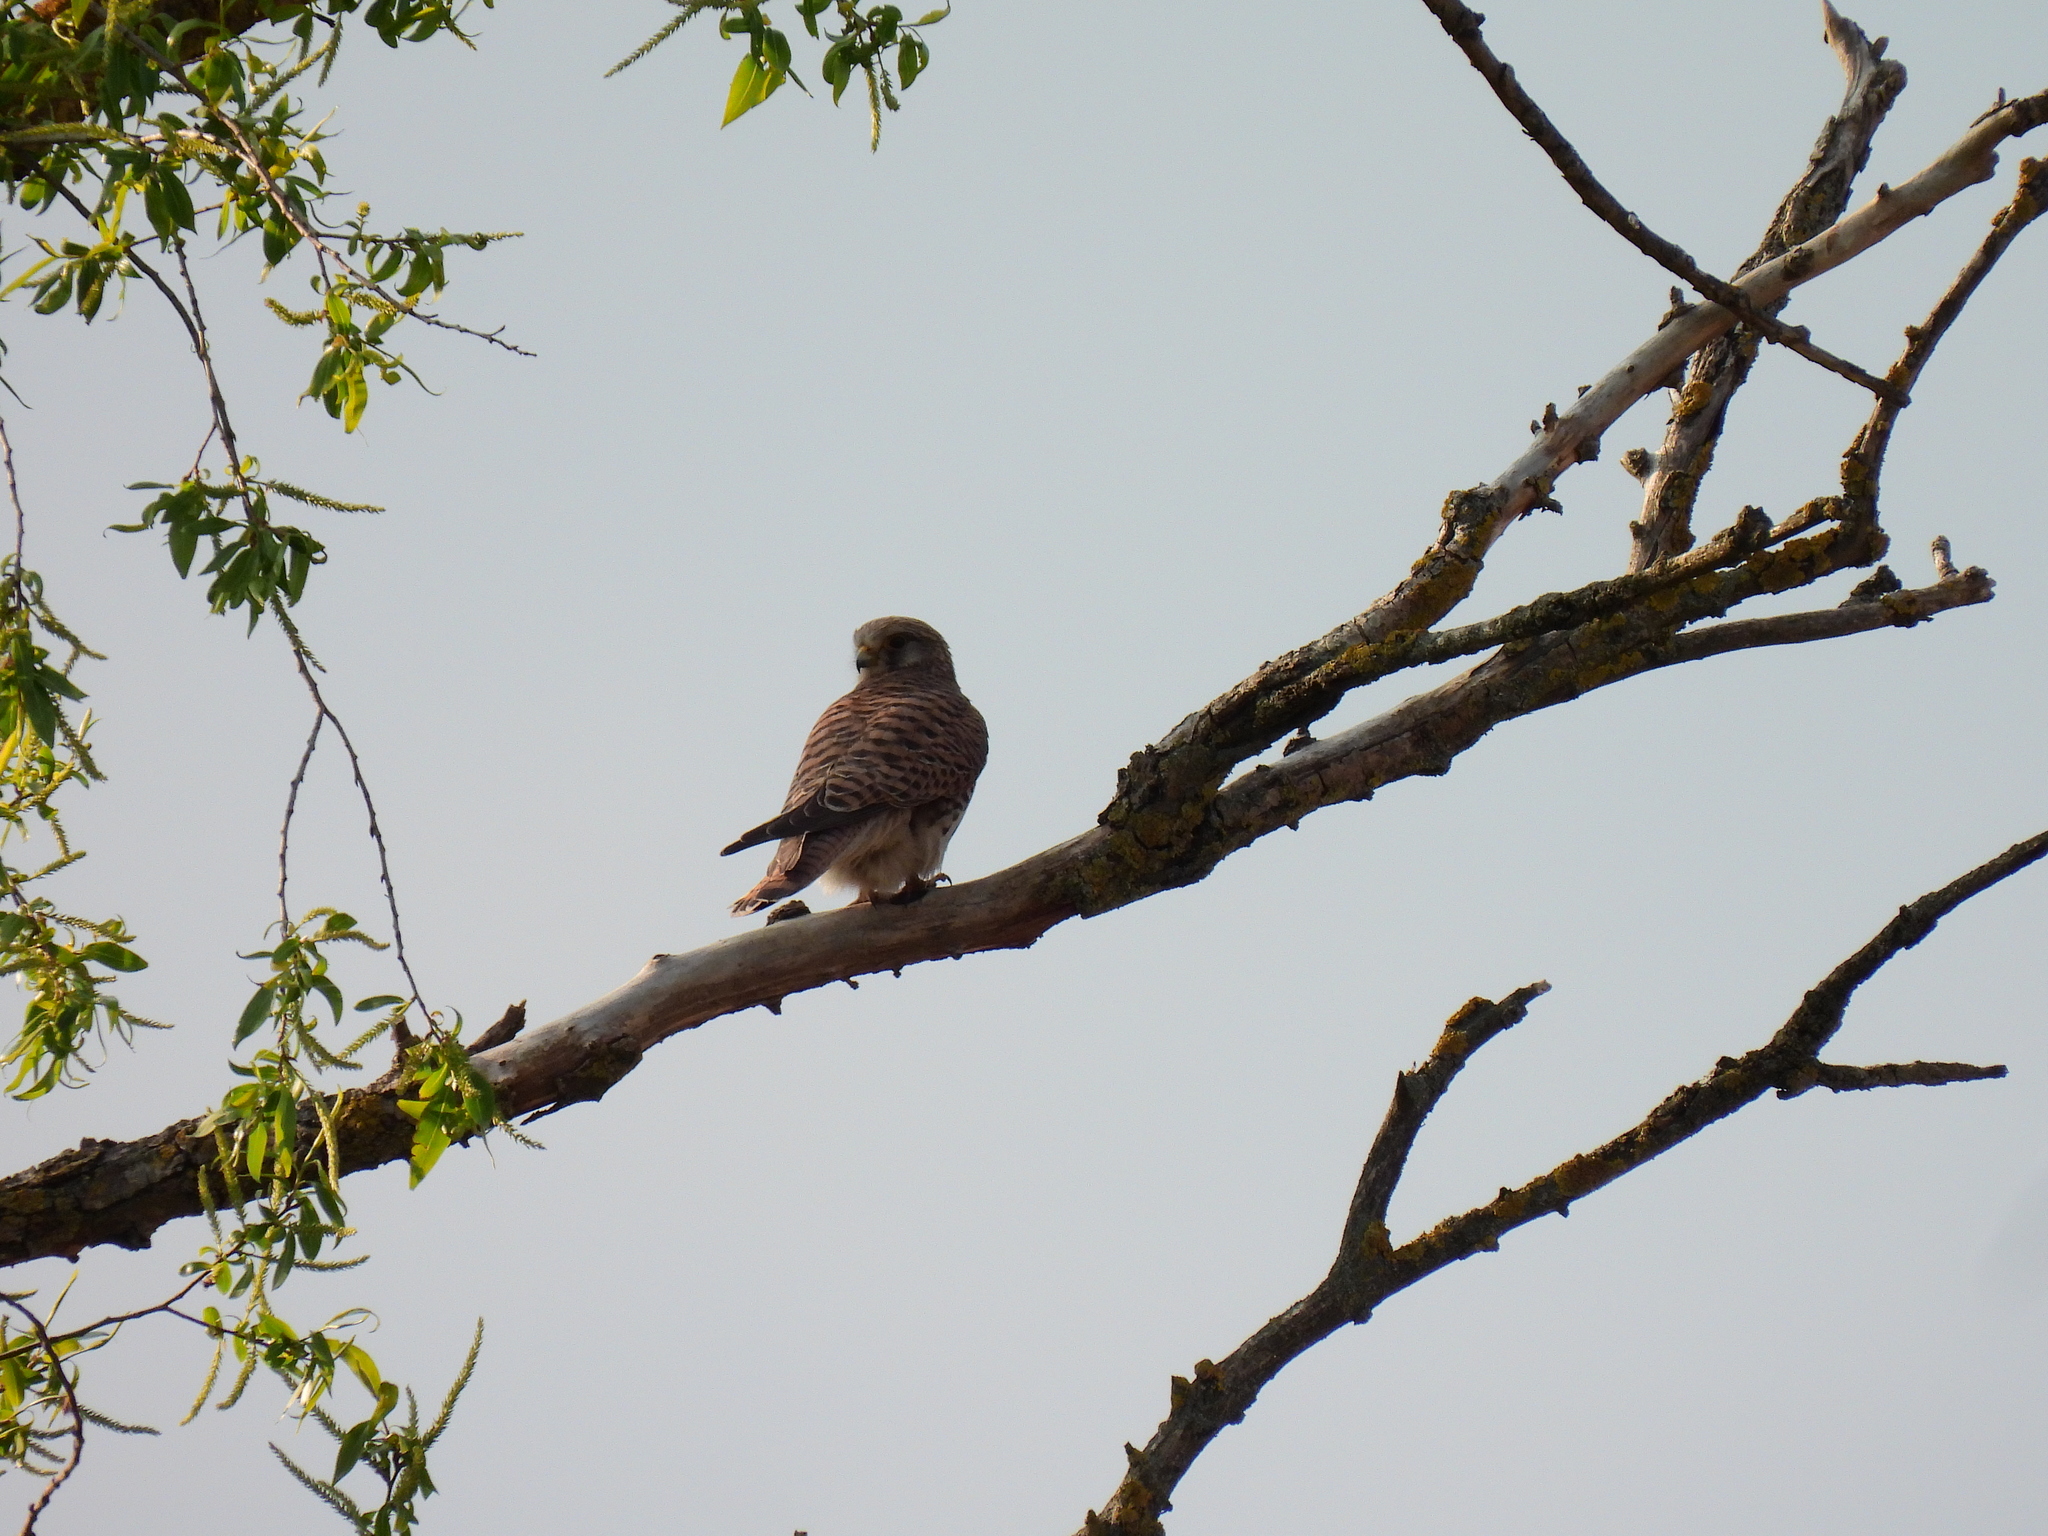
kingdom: Animalia
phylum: Chordata
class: Aves
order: Falconiformes
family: Falconidae
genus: Falco
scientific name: Falco tinnunculus
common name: Common kestrel
